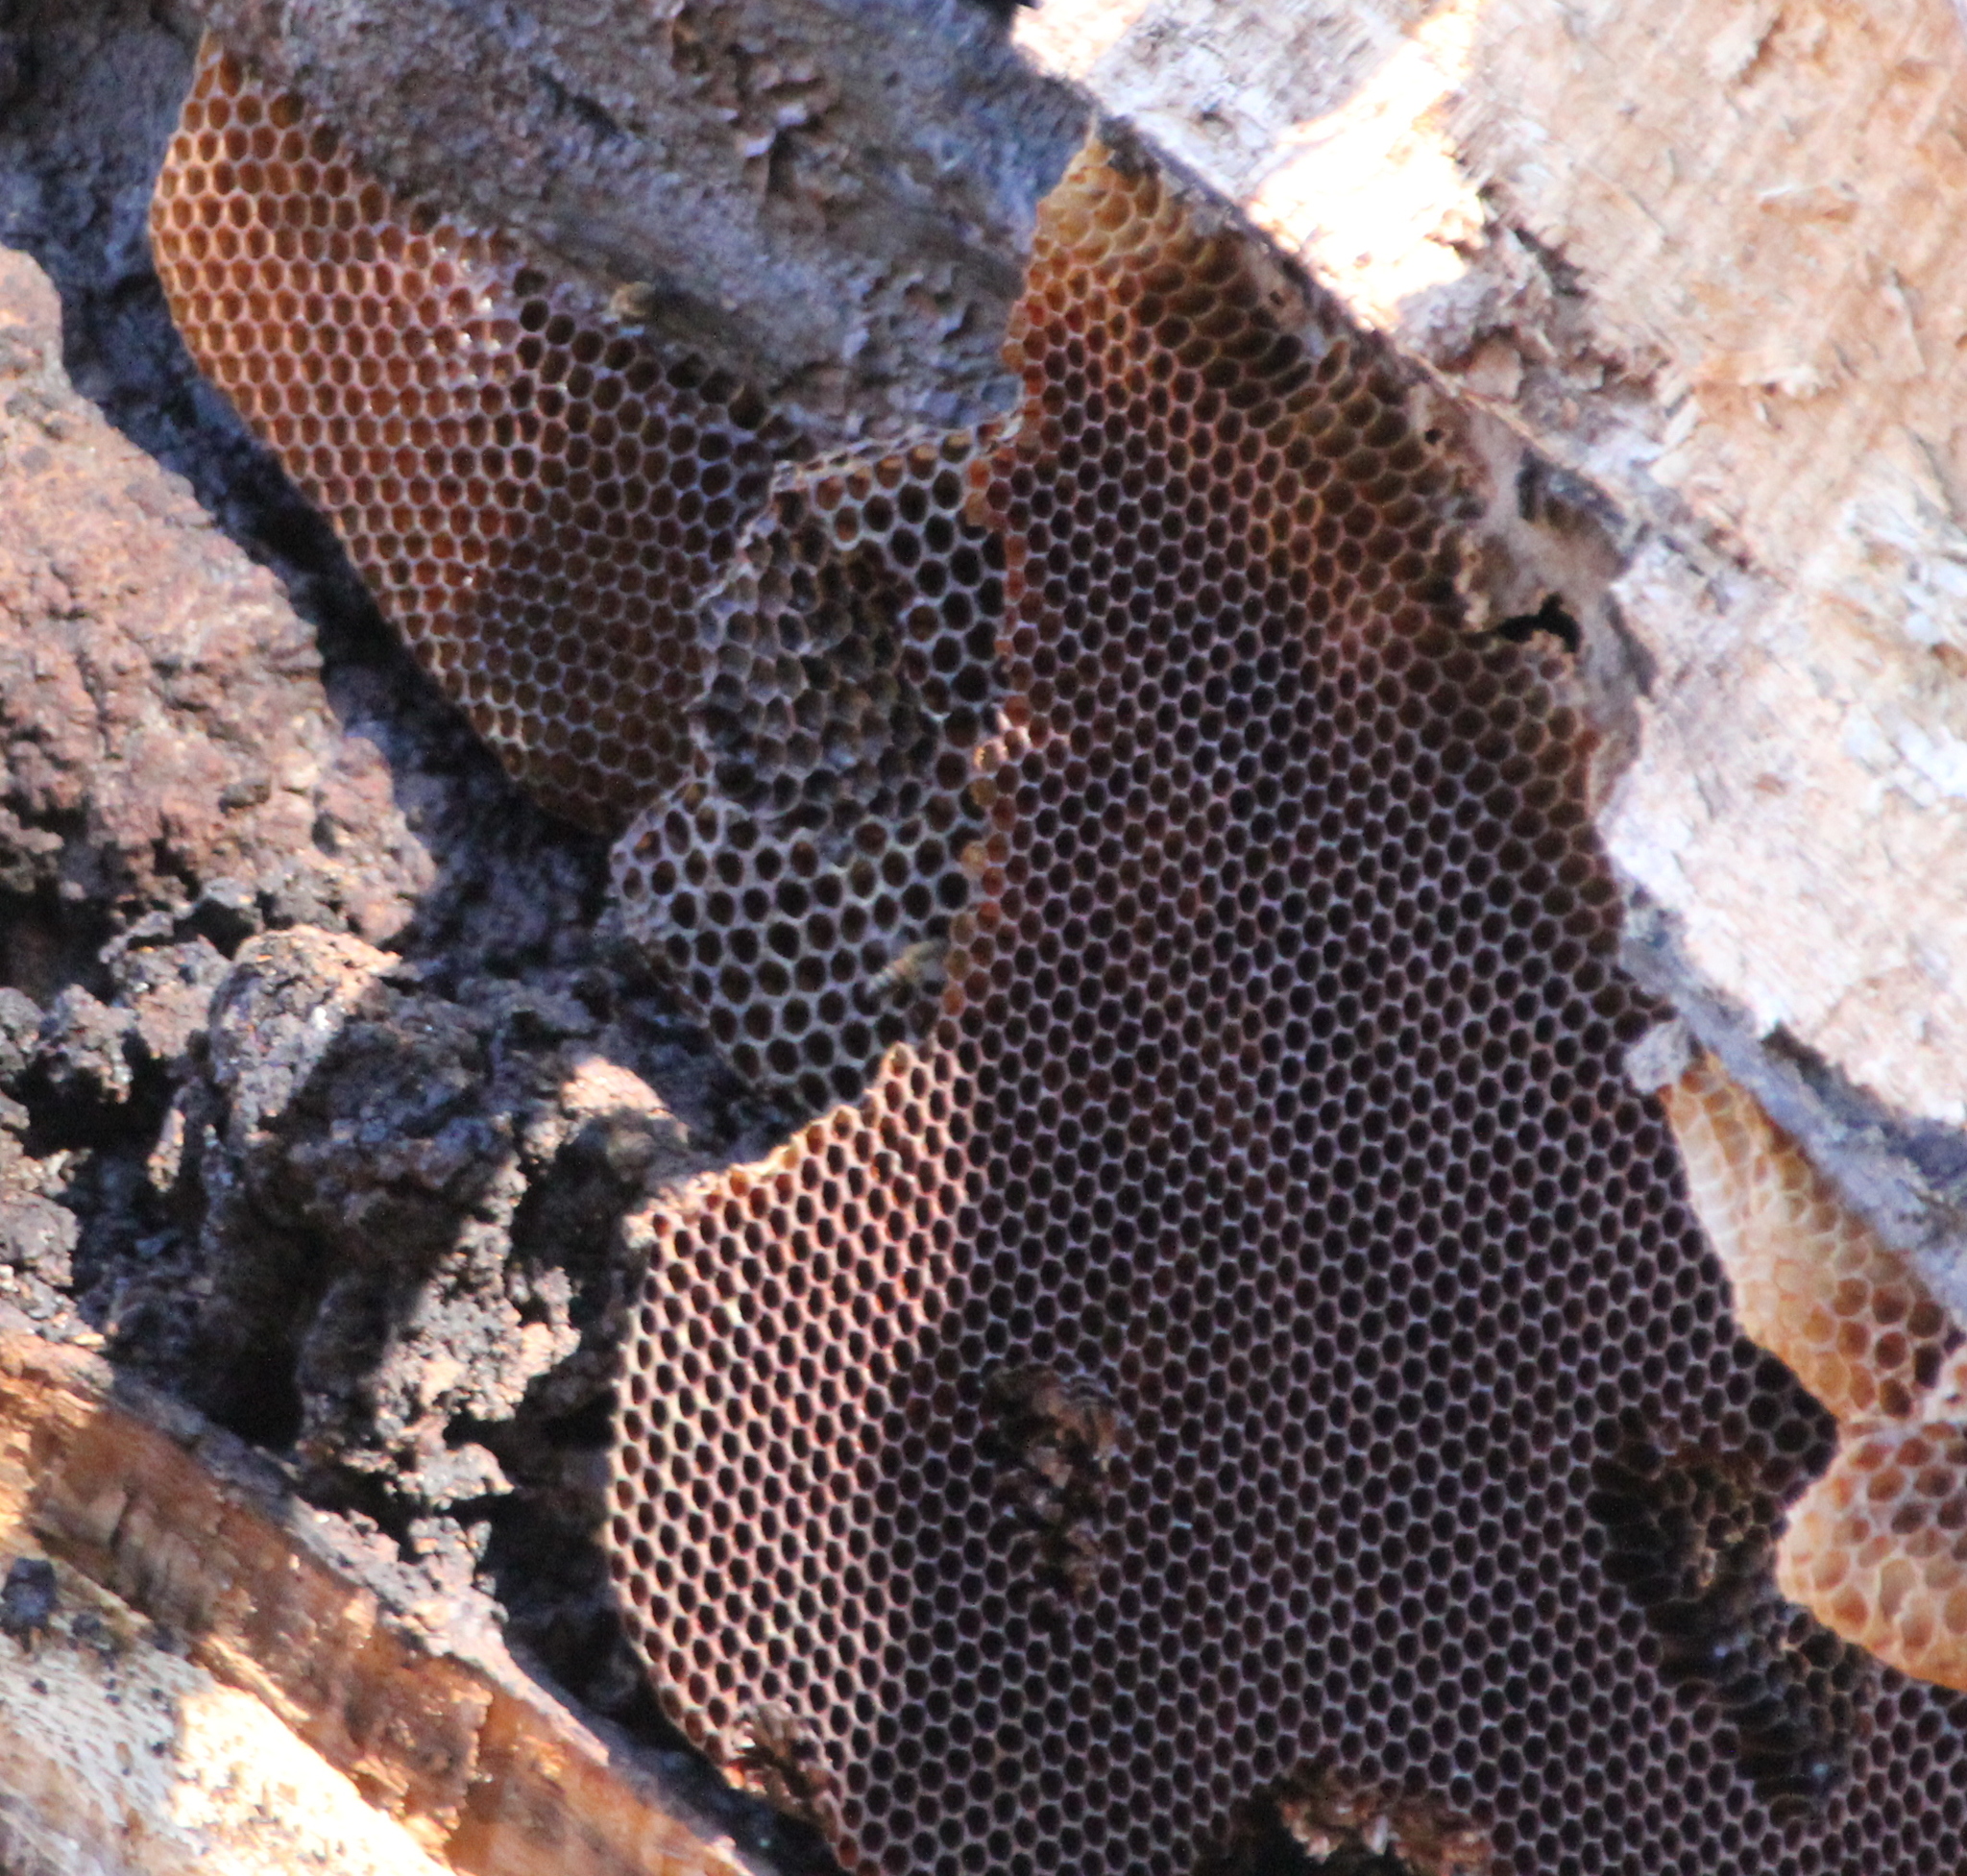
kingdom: Animalia
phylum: Arthropoda
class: Insecta
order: Hymenoptera
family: Apidae
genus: Apis
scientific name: Apis mellifera
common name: Honey bee
